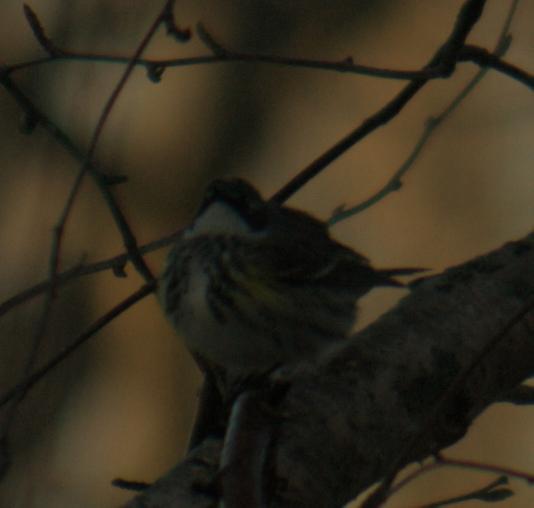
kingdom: Animalia
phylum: Chordata
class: Aves
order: Passeriformes
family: Parulidae
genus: Setophaga
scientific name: Setophaga coronata
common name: Myrtle warbler
